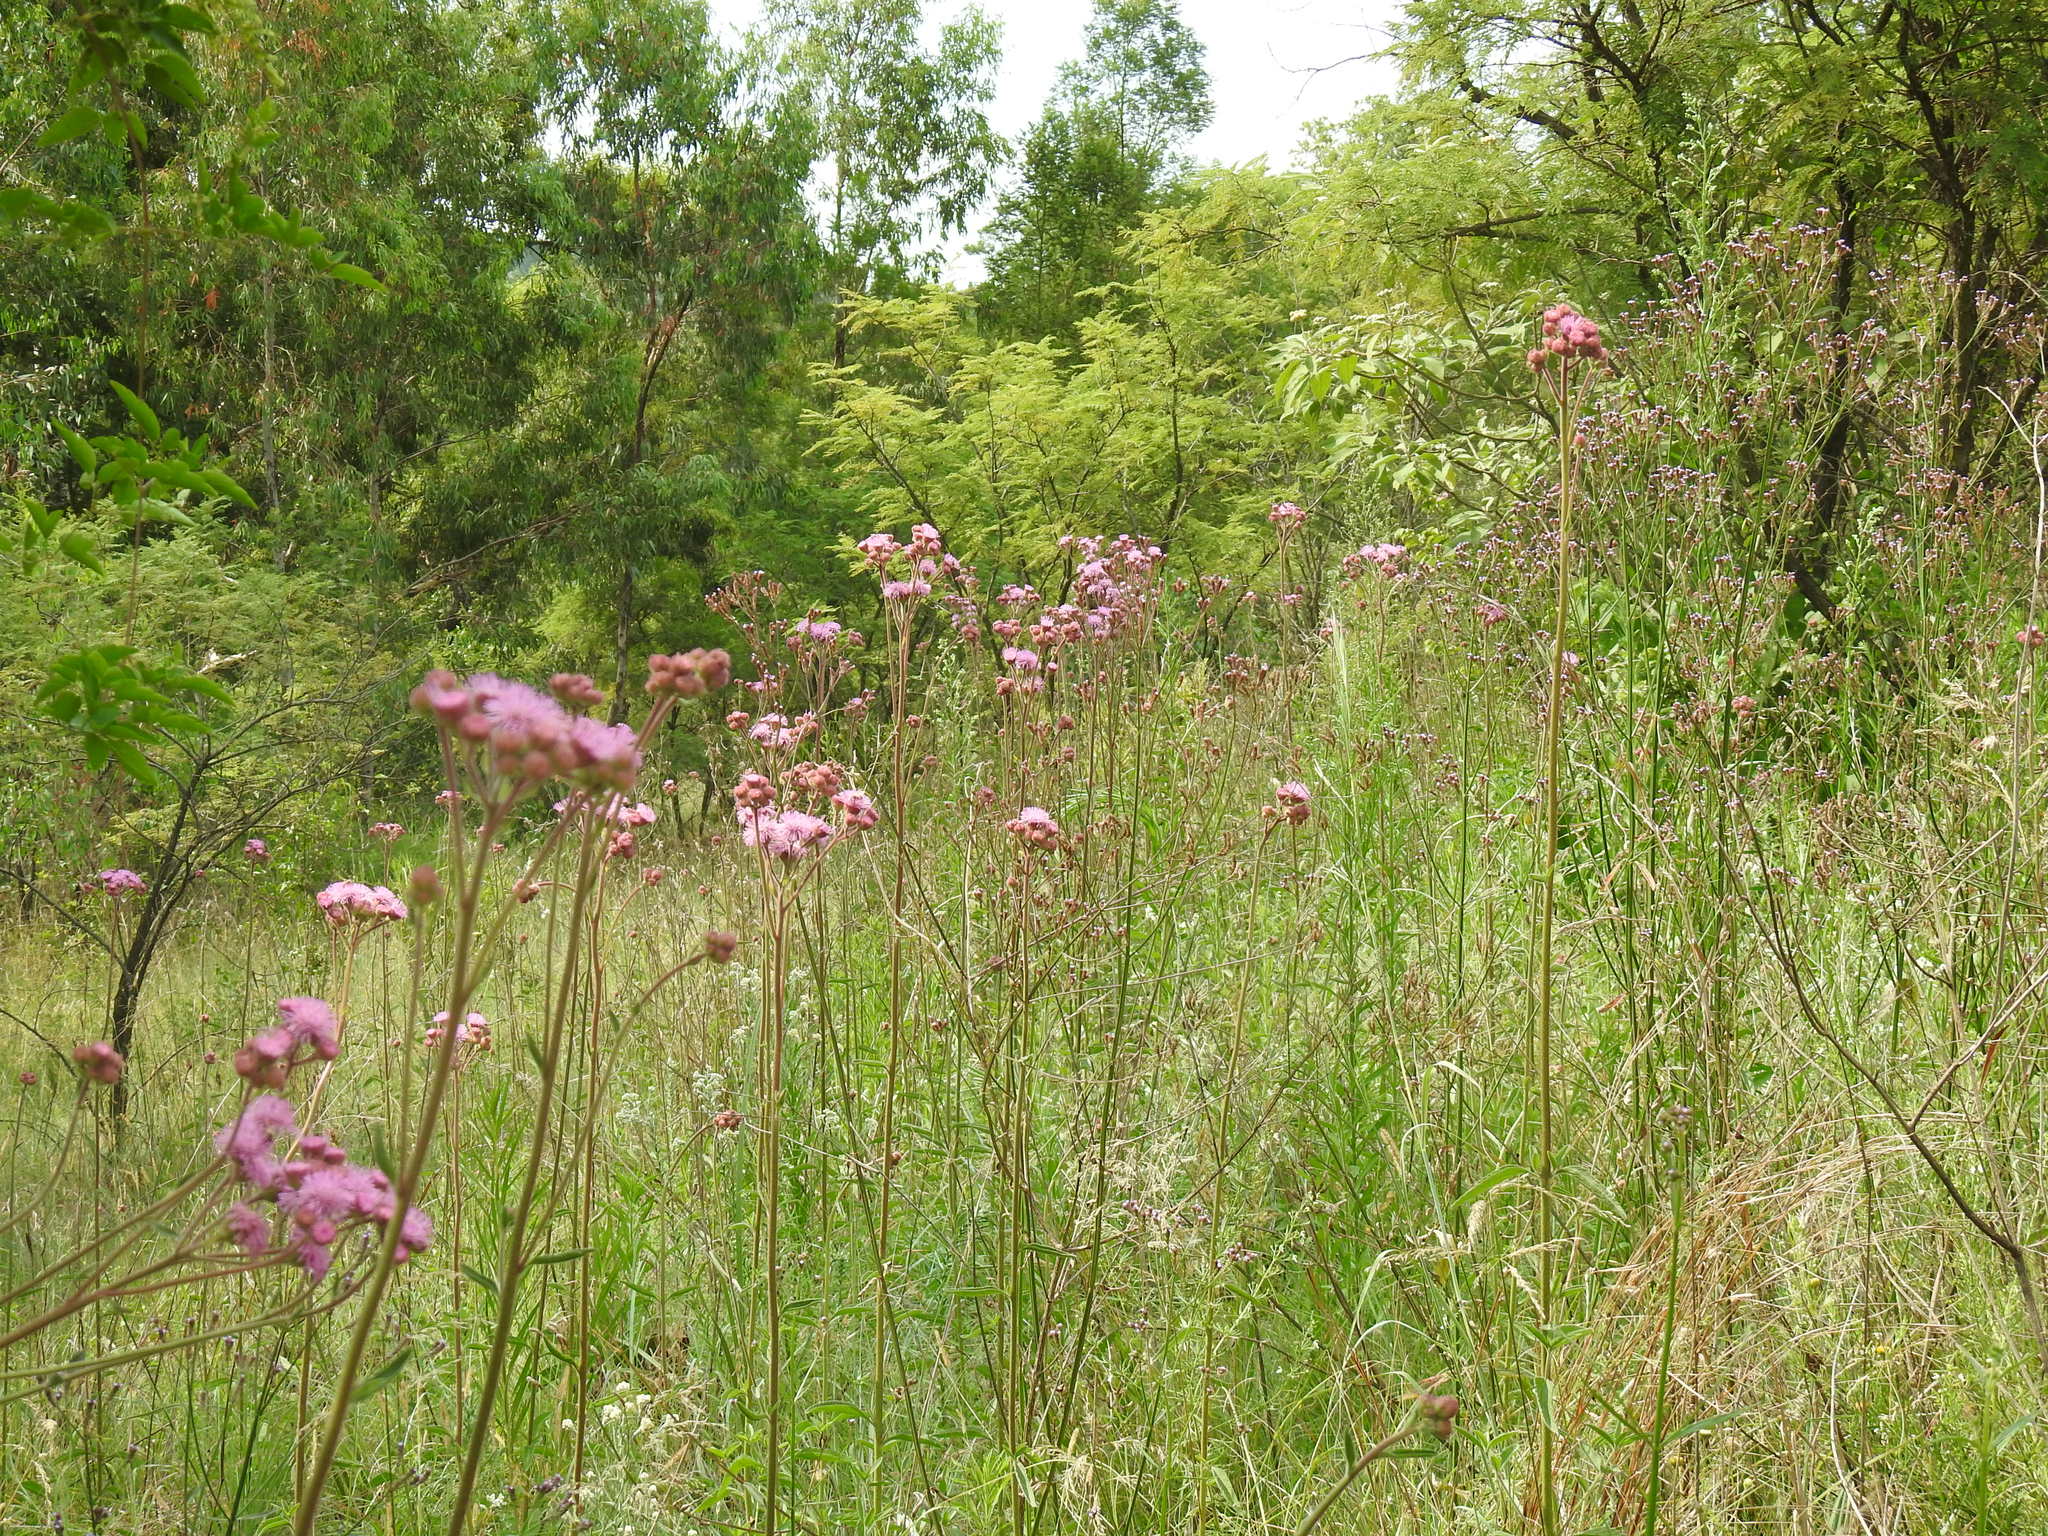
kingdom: Plantae
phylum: Tracheophyta
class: Magnoliopsida
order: Asterales
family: Asteraceae
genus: Campuloclinium
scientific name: Campuloclinium macrocephalum
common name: Pompomweed
